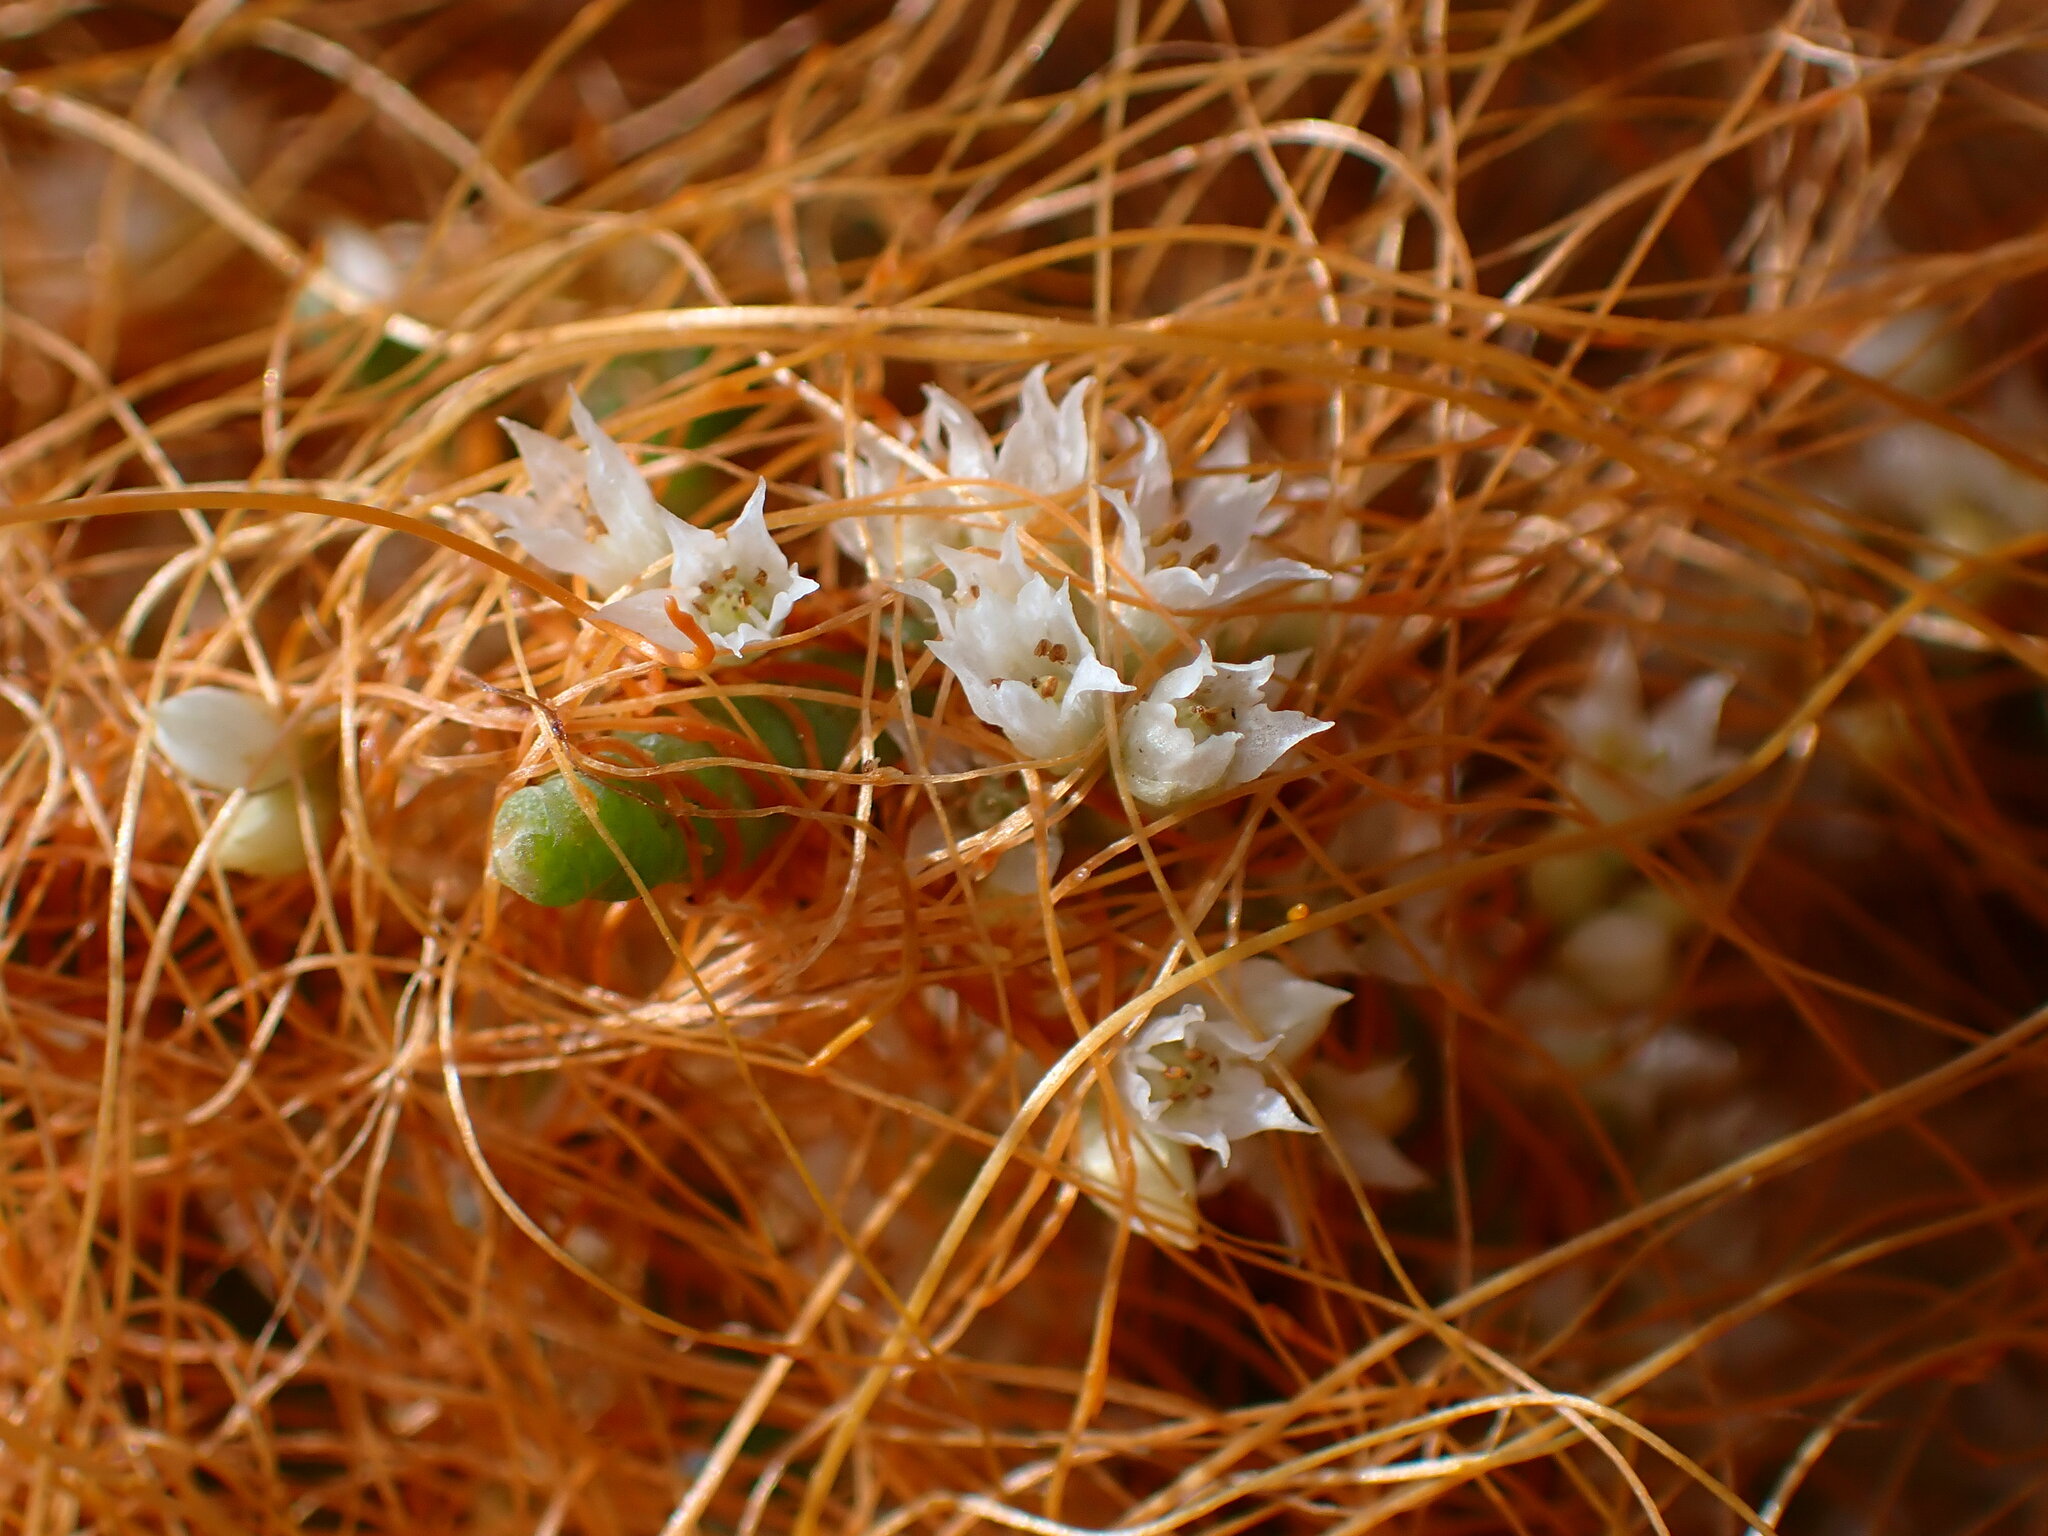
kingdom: Plantae
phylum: Tracheophyta
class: Magnoliopsida
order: Solanales
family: Convolvulaceae
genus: Cuscuta
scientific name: Cuscuta pacifica
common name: Large saltmarsh dodder
